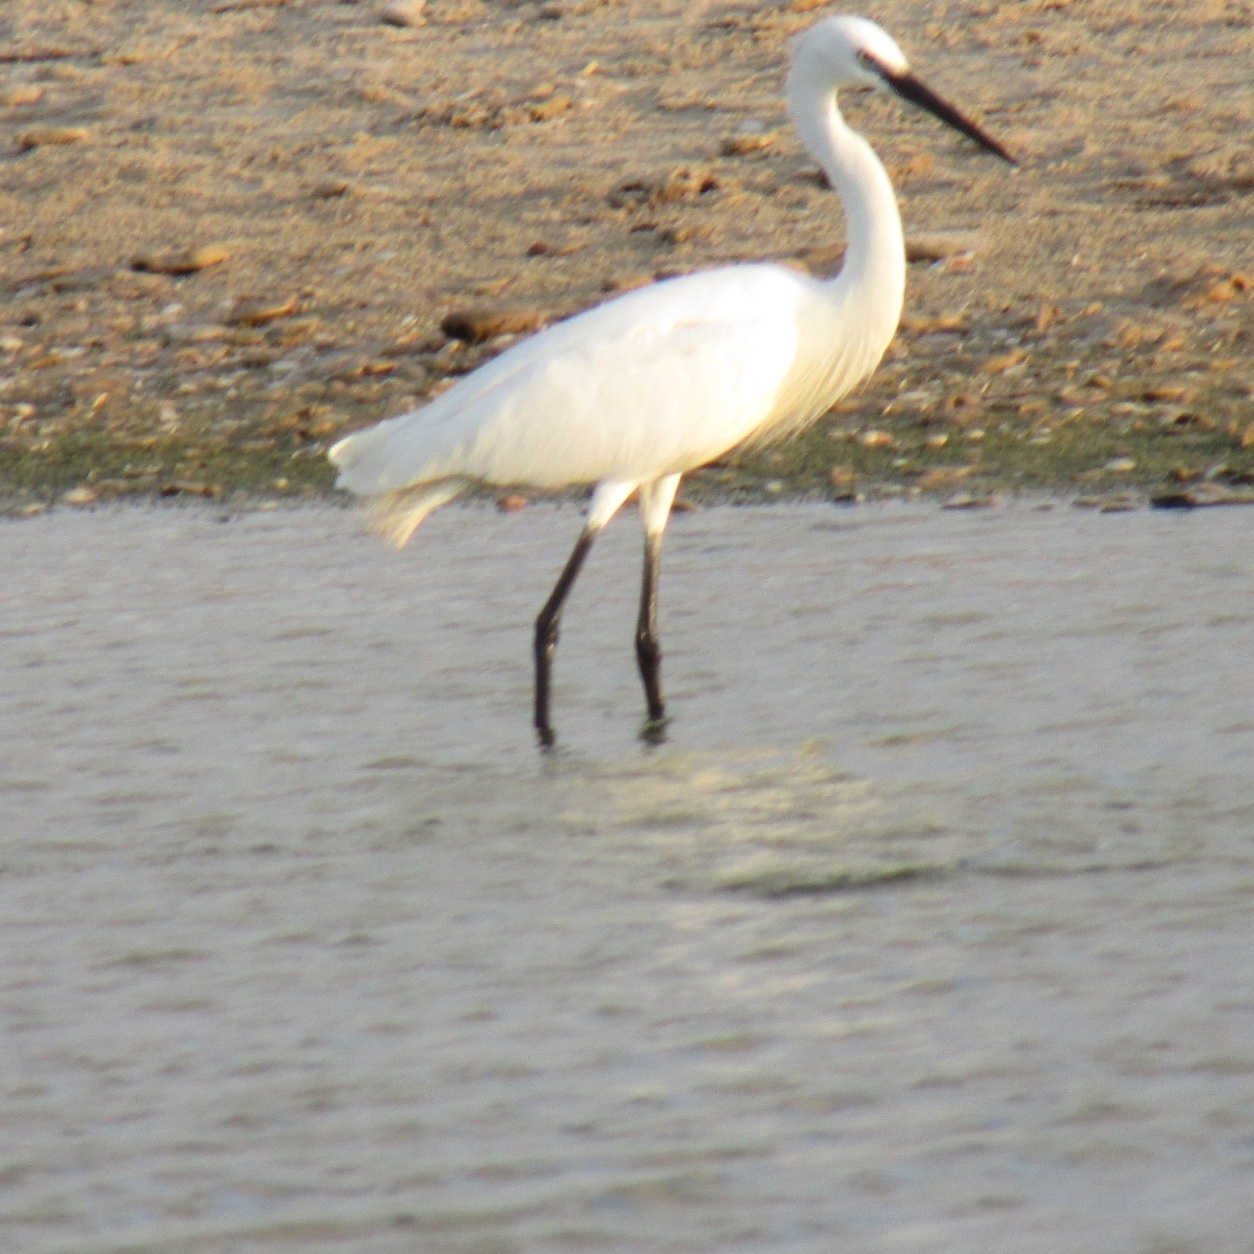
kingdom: Animalia
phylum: Chordata
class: Aves
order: Pelecaniformes
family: Ardeidae
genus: Egretta
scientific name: Egretta garzetta
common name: Little egret
